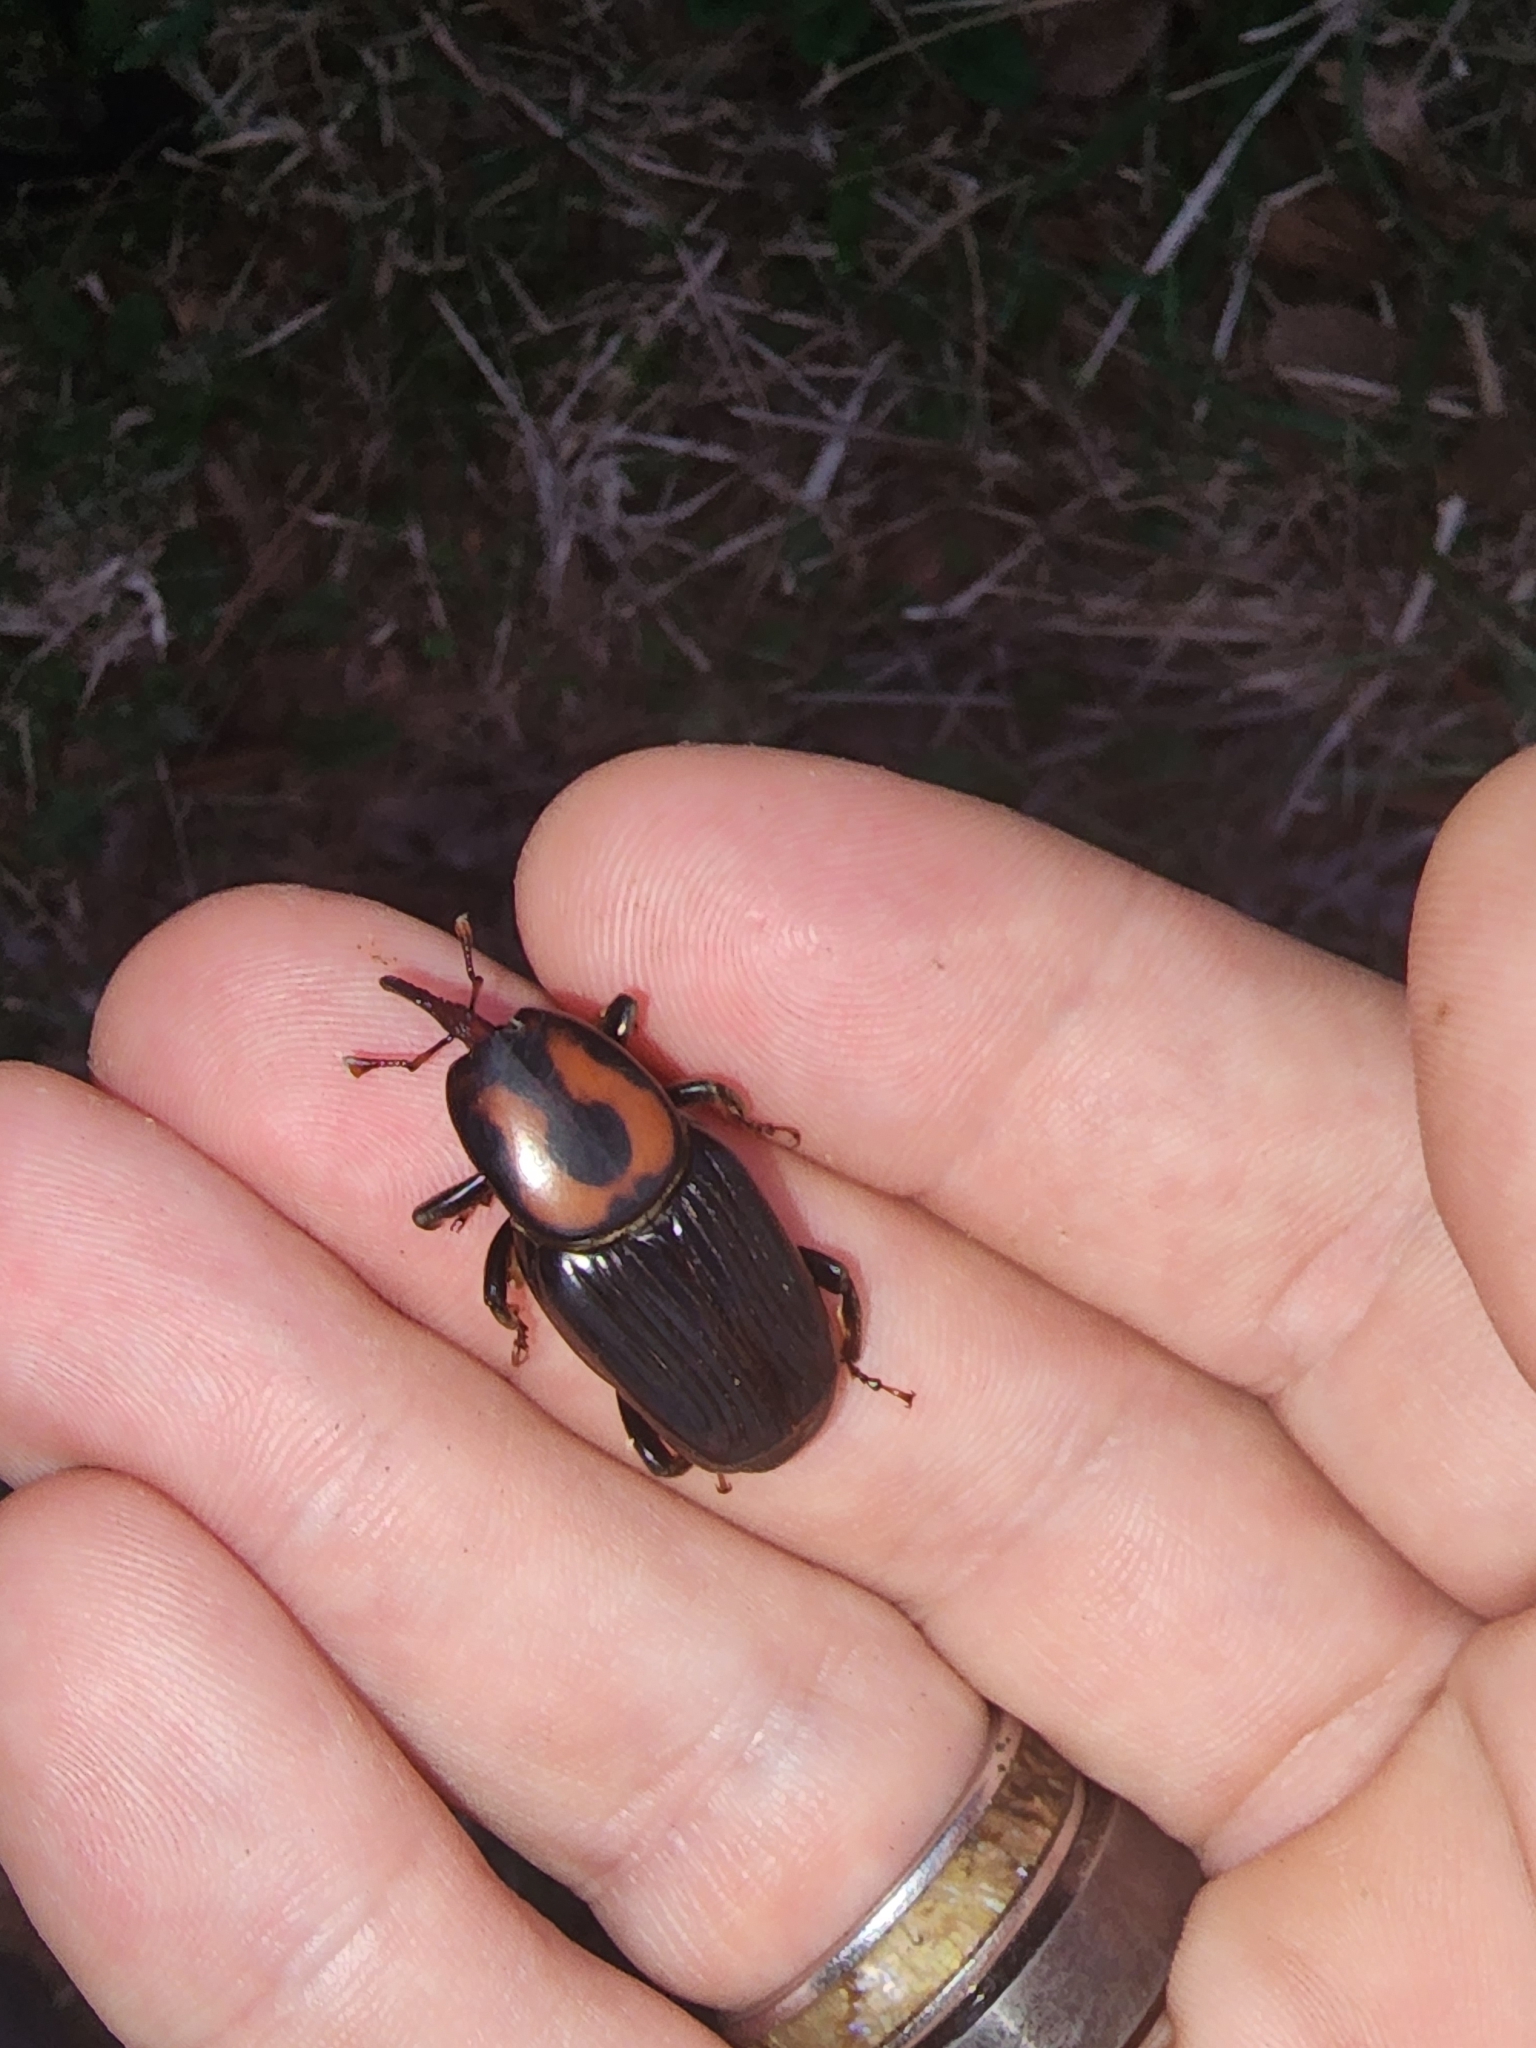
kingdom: Animalia
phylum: Arthropoda
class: Insecta
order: Coleoptera
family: Dryophthoridae
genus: Rhynchophorus
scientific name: Rhynchophorus cruentatus
